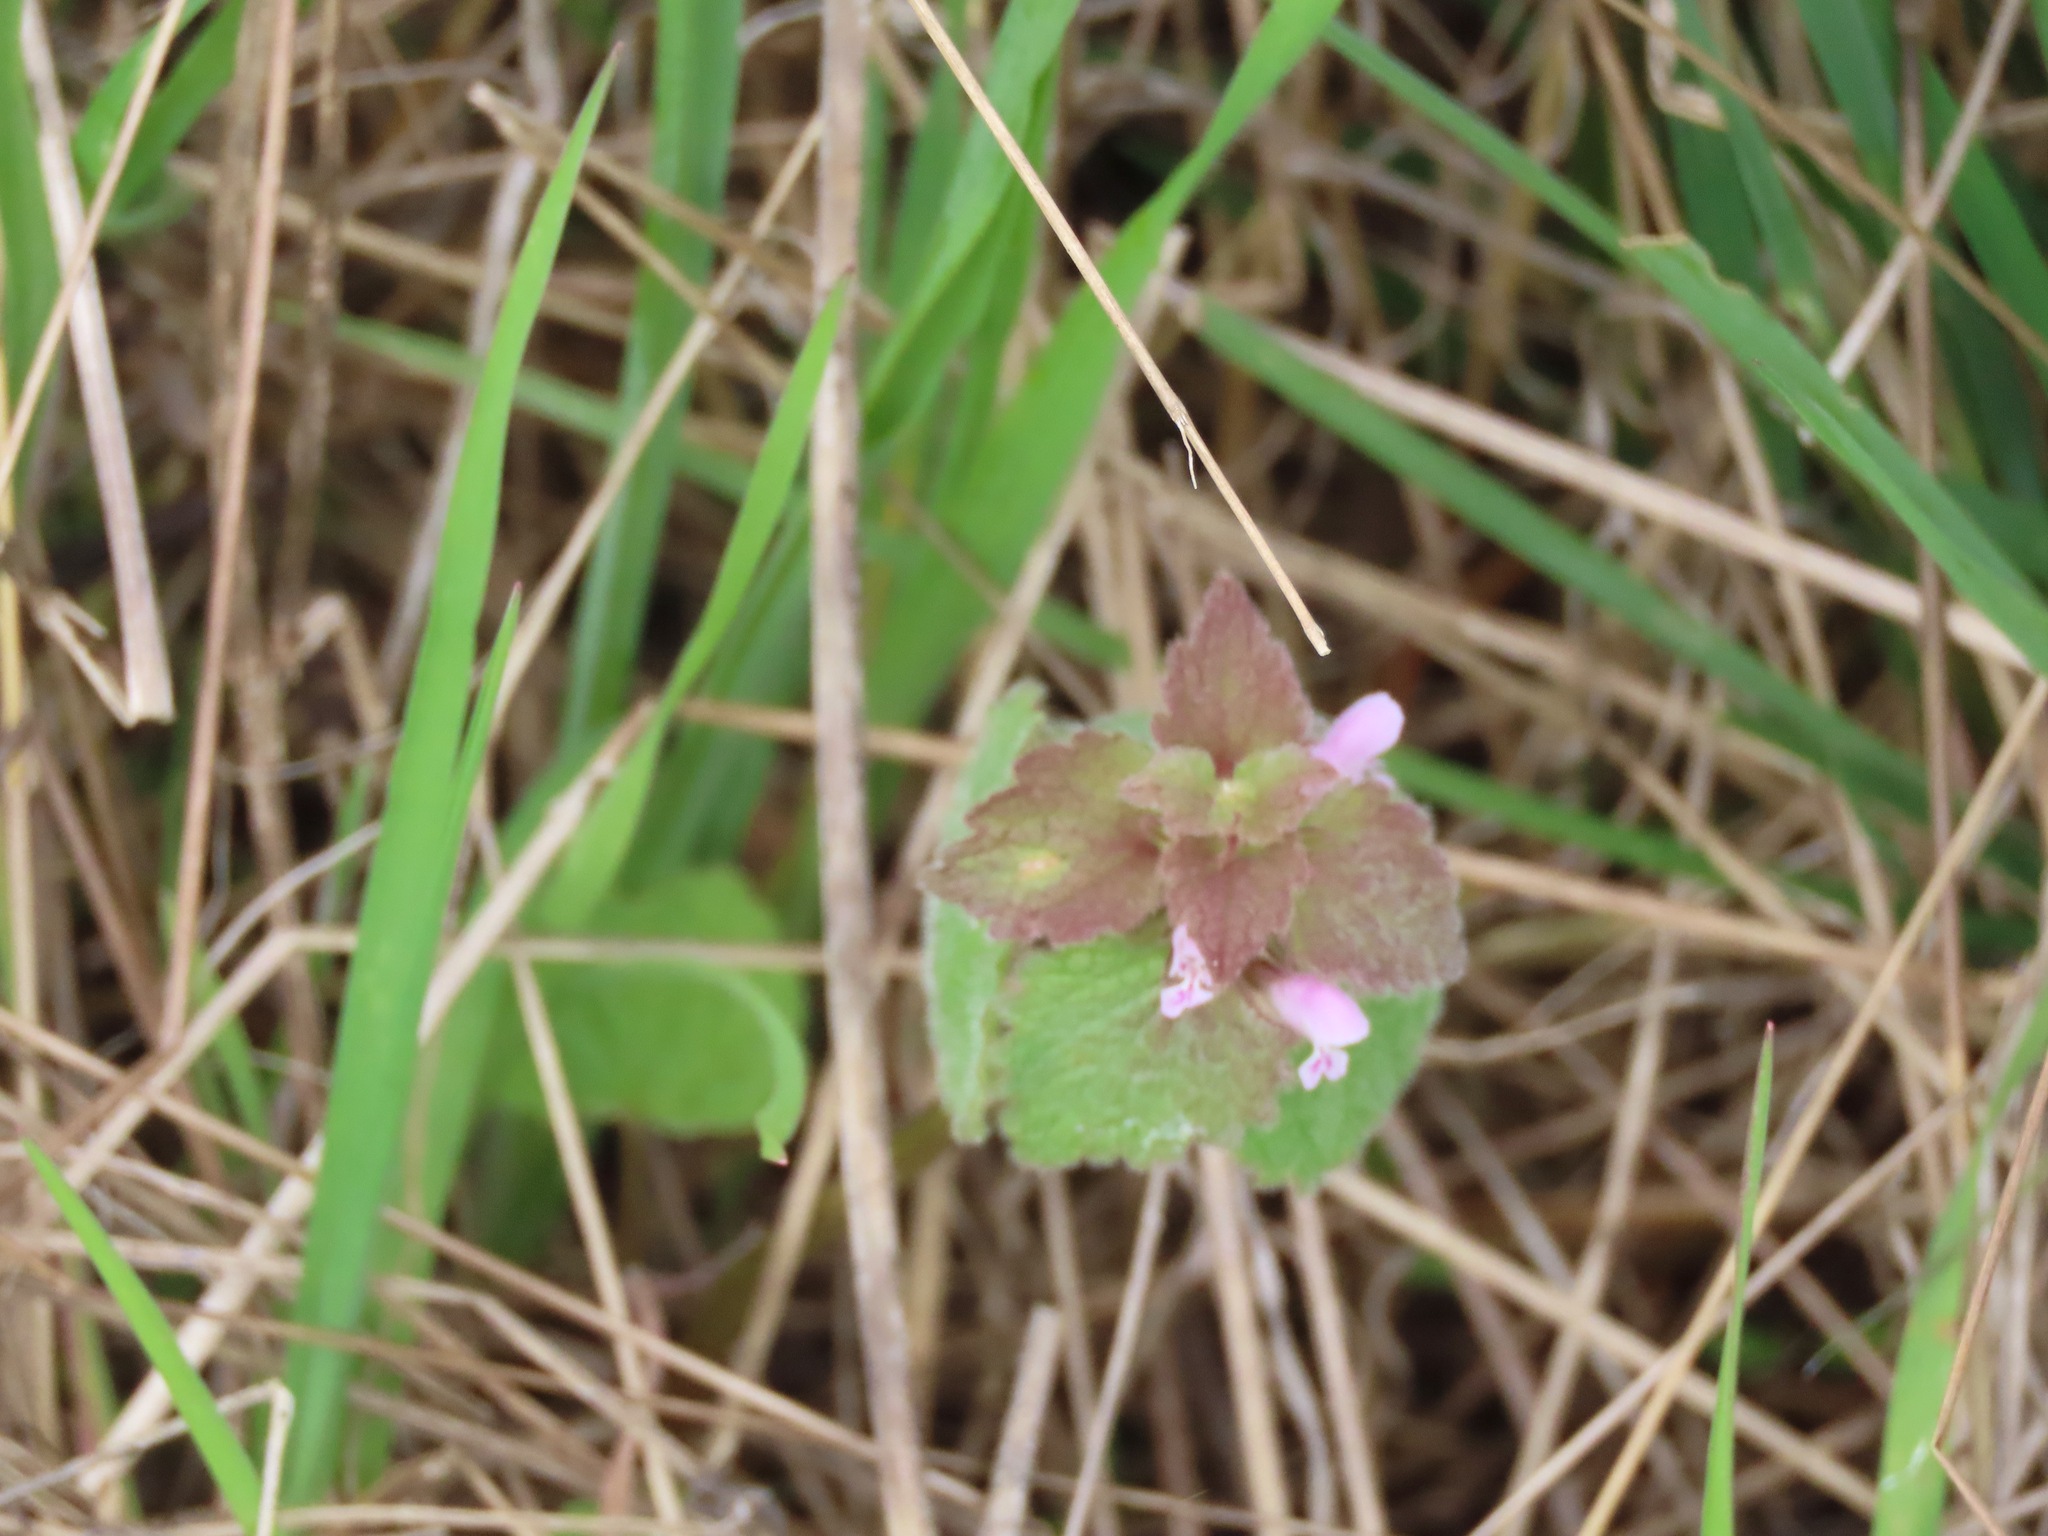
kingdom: Plantae
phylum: Tracheophyta
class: Magnoliopsida
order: Lamiales
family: Lamiaceae
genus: Lamium
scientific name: Lamium purpureum
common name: Red dead-nettle
